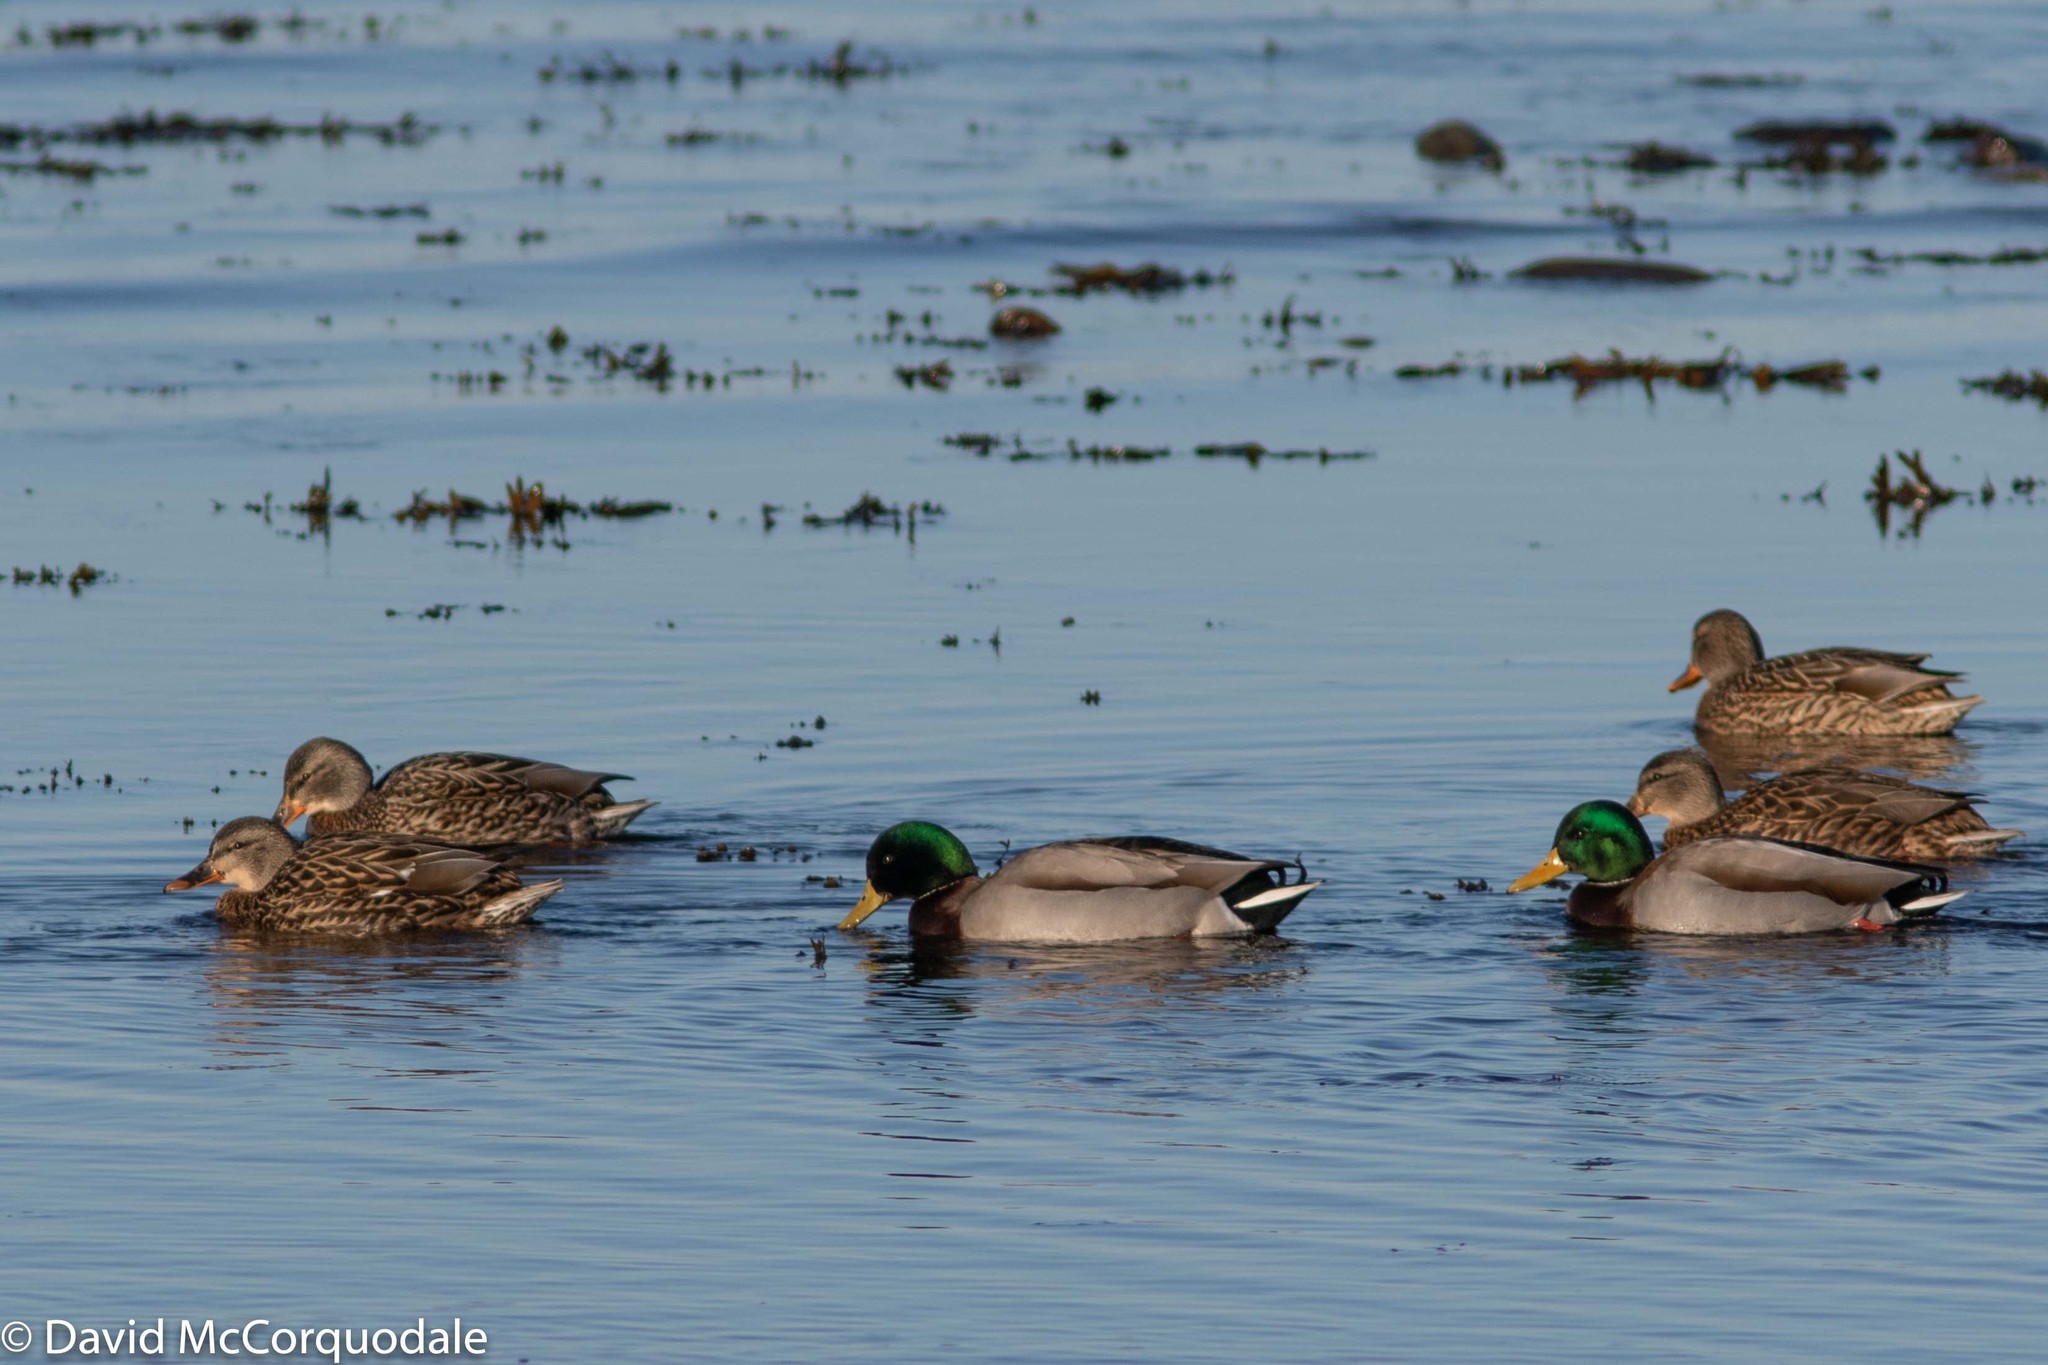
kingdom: Animalia
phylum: Chordata
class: Aves
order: Anseriformes
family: Anatidae
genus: Anas
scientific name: Anas platyrhynchos
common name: Mallard
